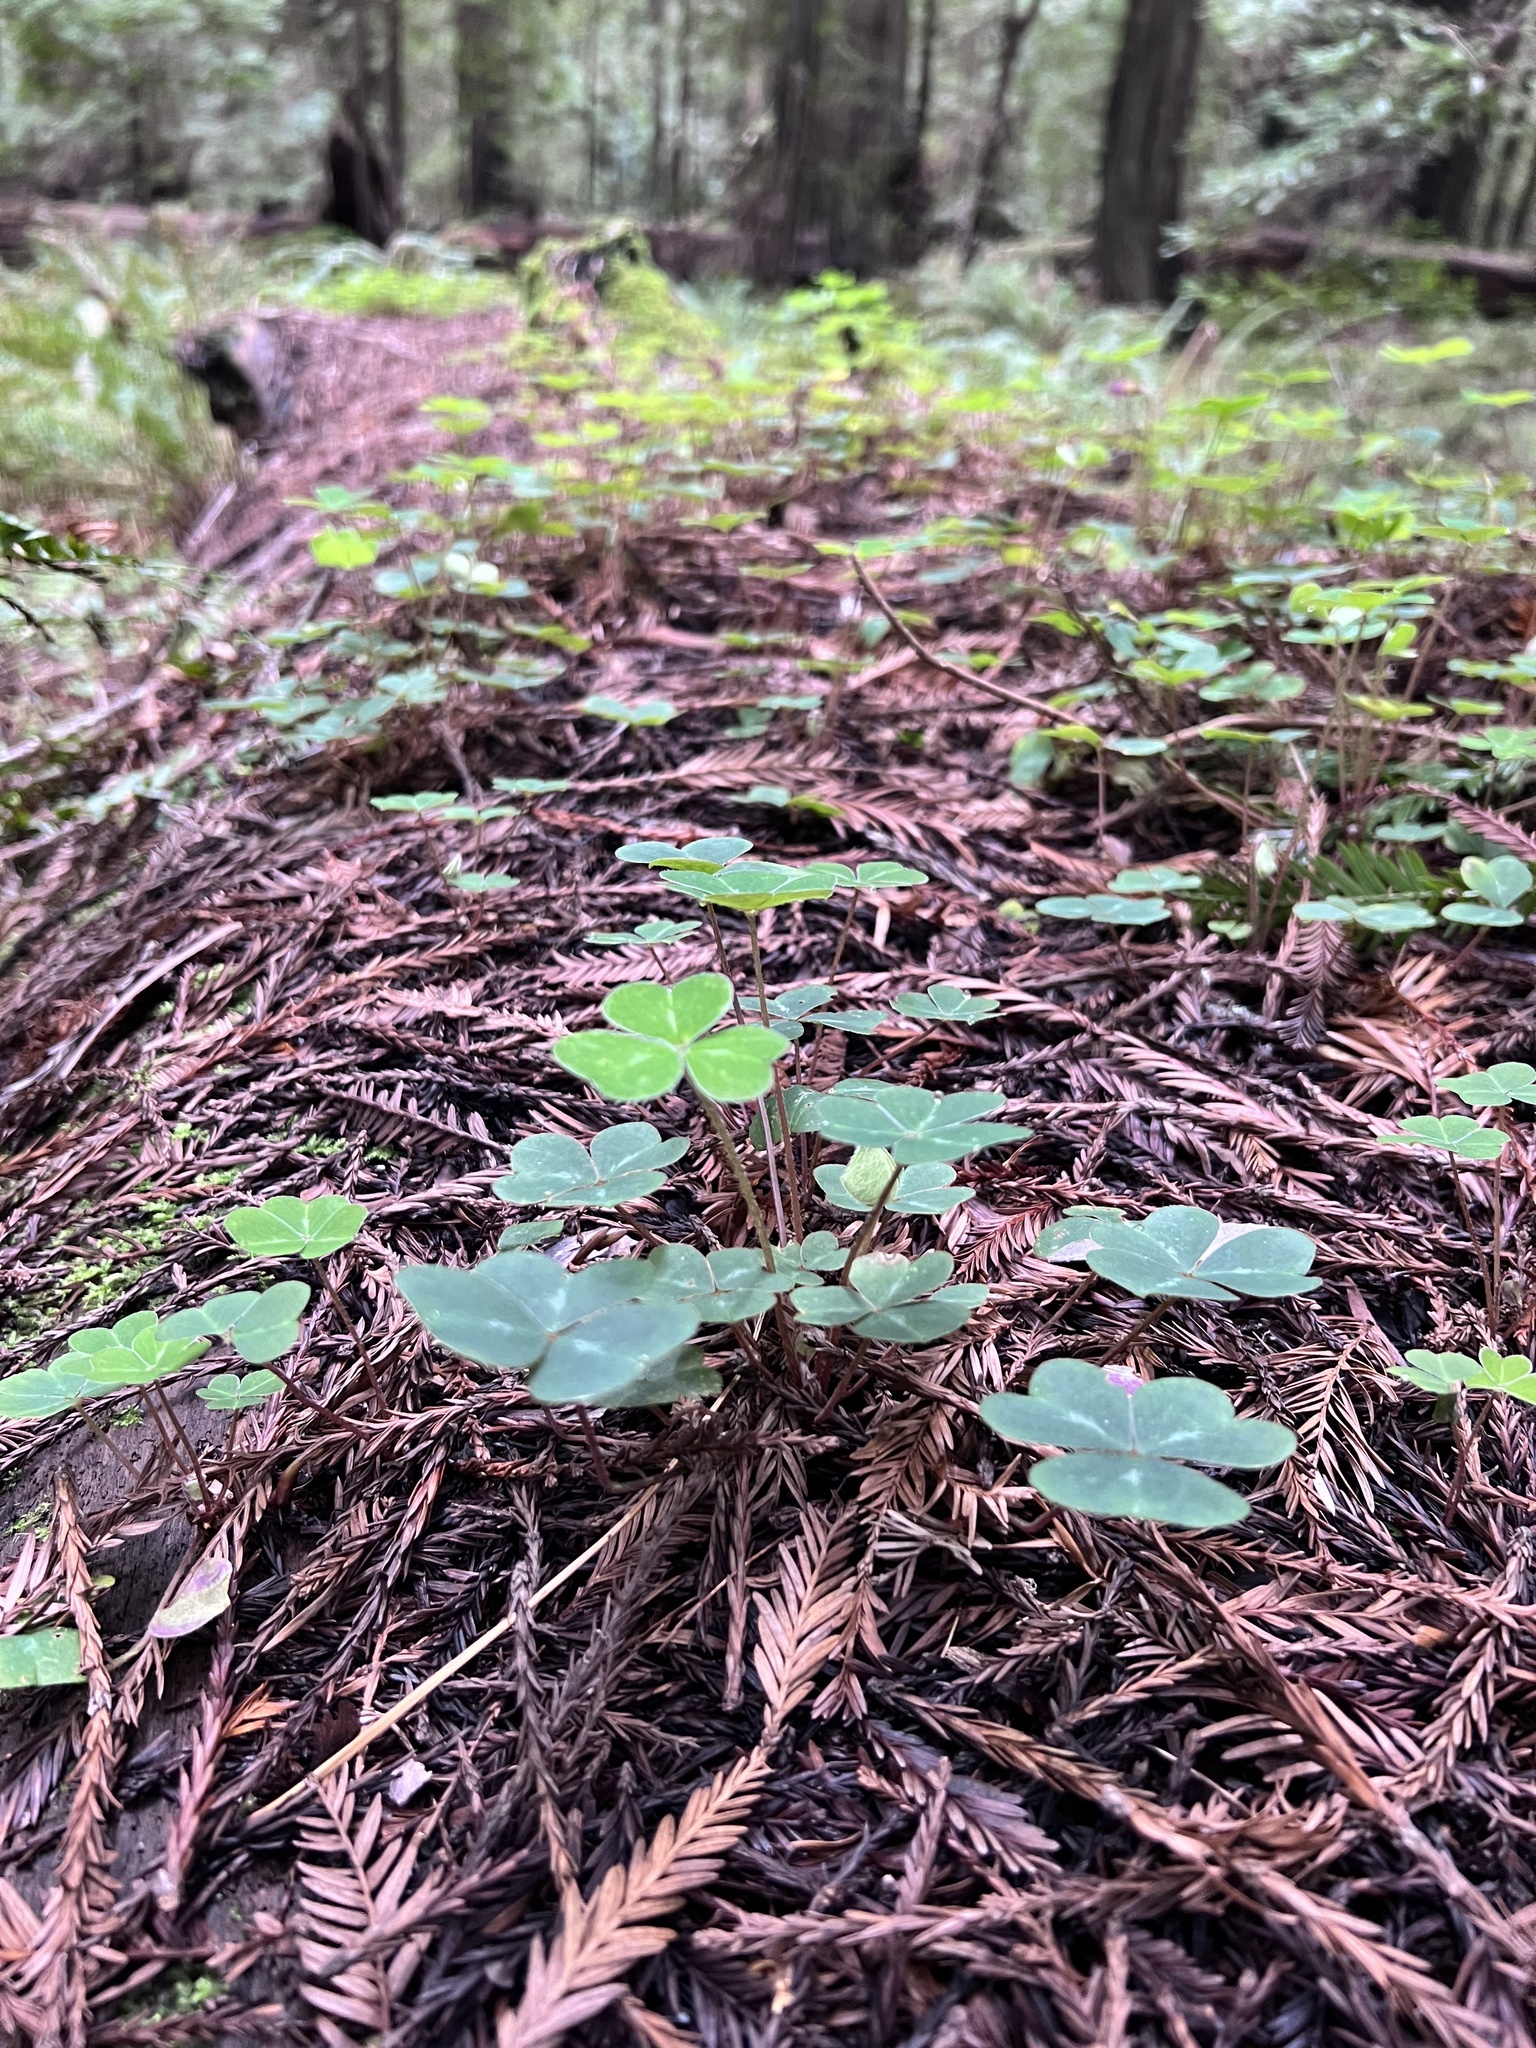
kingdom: Plantae
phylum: Tracheophyta
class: Magnoliopsida
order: Oxalidales
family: Oxalidaceae
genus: Oxalis
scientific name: Oxalis oregana
